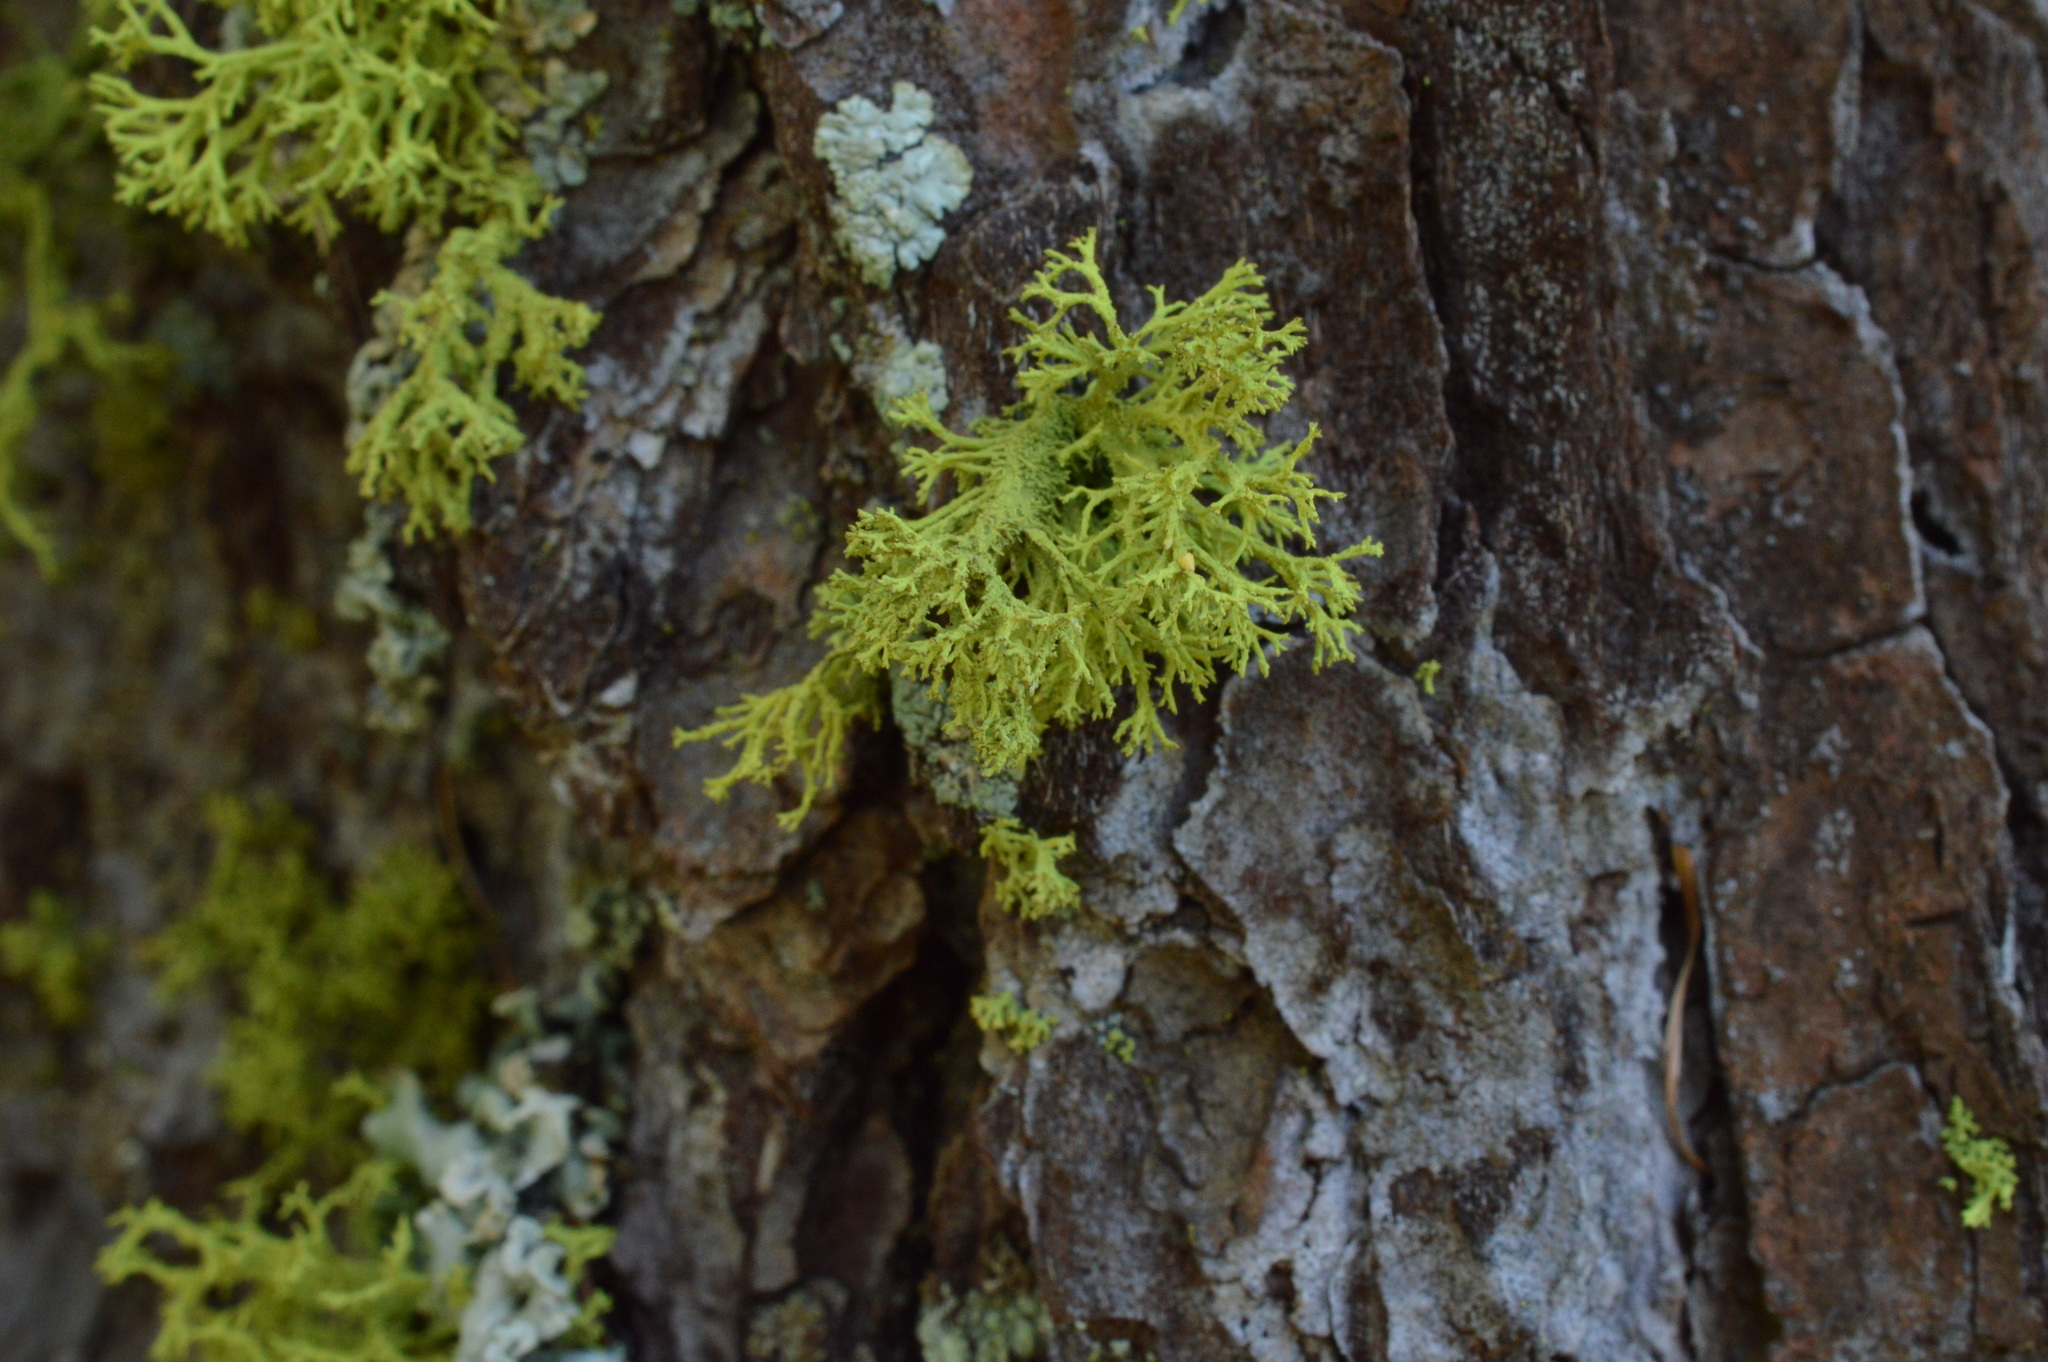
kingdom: Fungi
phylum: Ascomycota
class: Lecanoromycetes
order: Lecanorales
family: Parmeliaceae
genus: Letharia
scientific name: Letharia vulpina
